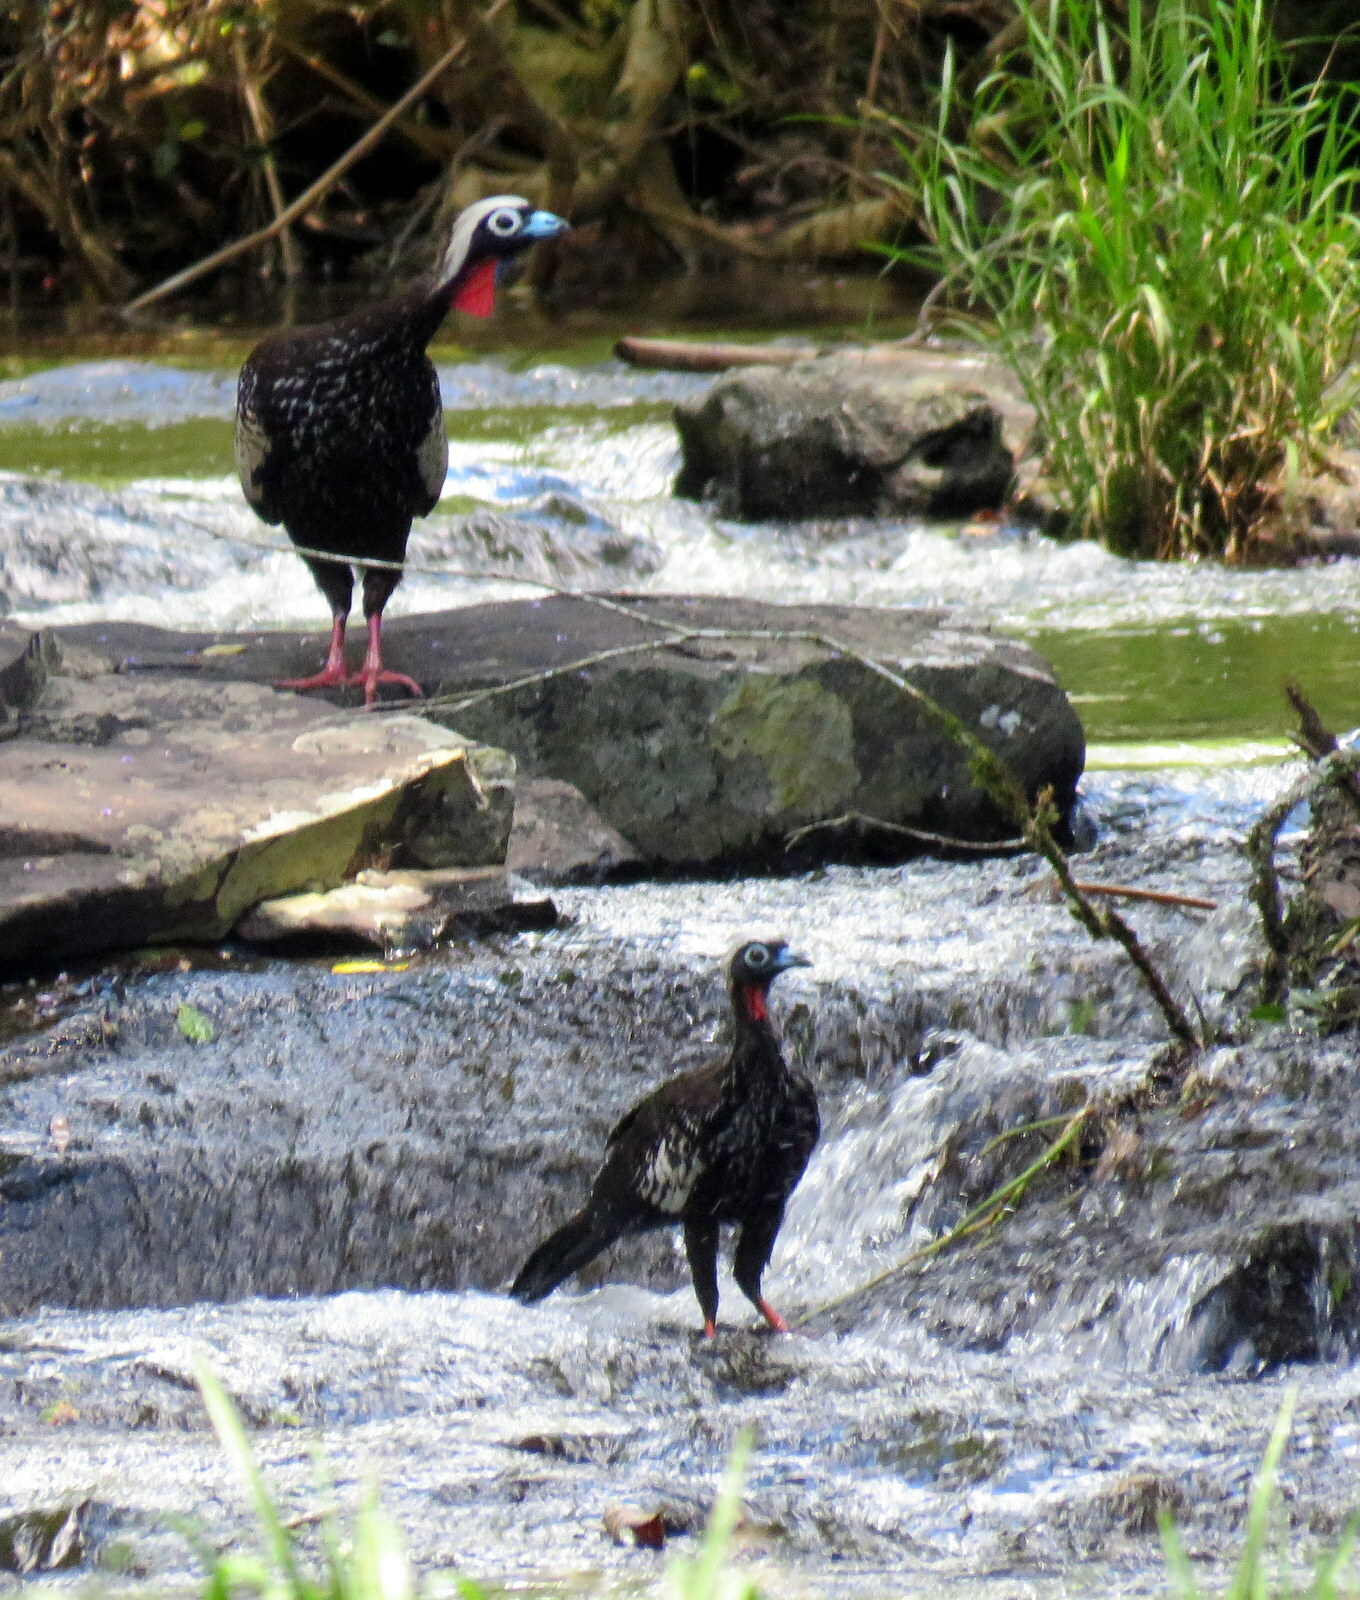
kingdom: Animalia
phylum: Chordata
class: Aves
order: Galliformes
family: Cracidae
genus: Pipile
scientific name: Pipile jacutinga
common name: Black-fronted piping-guan
